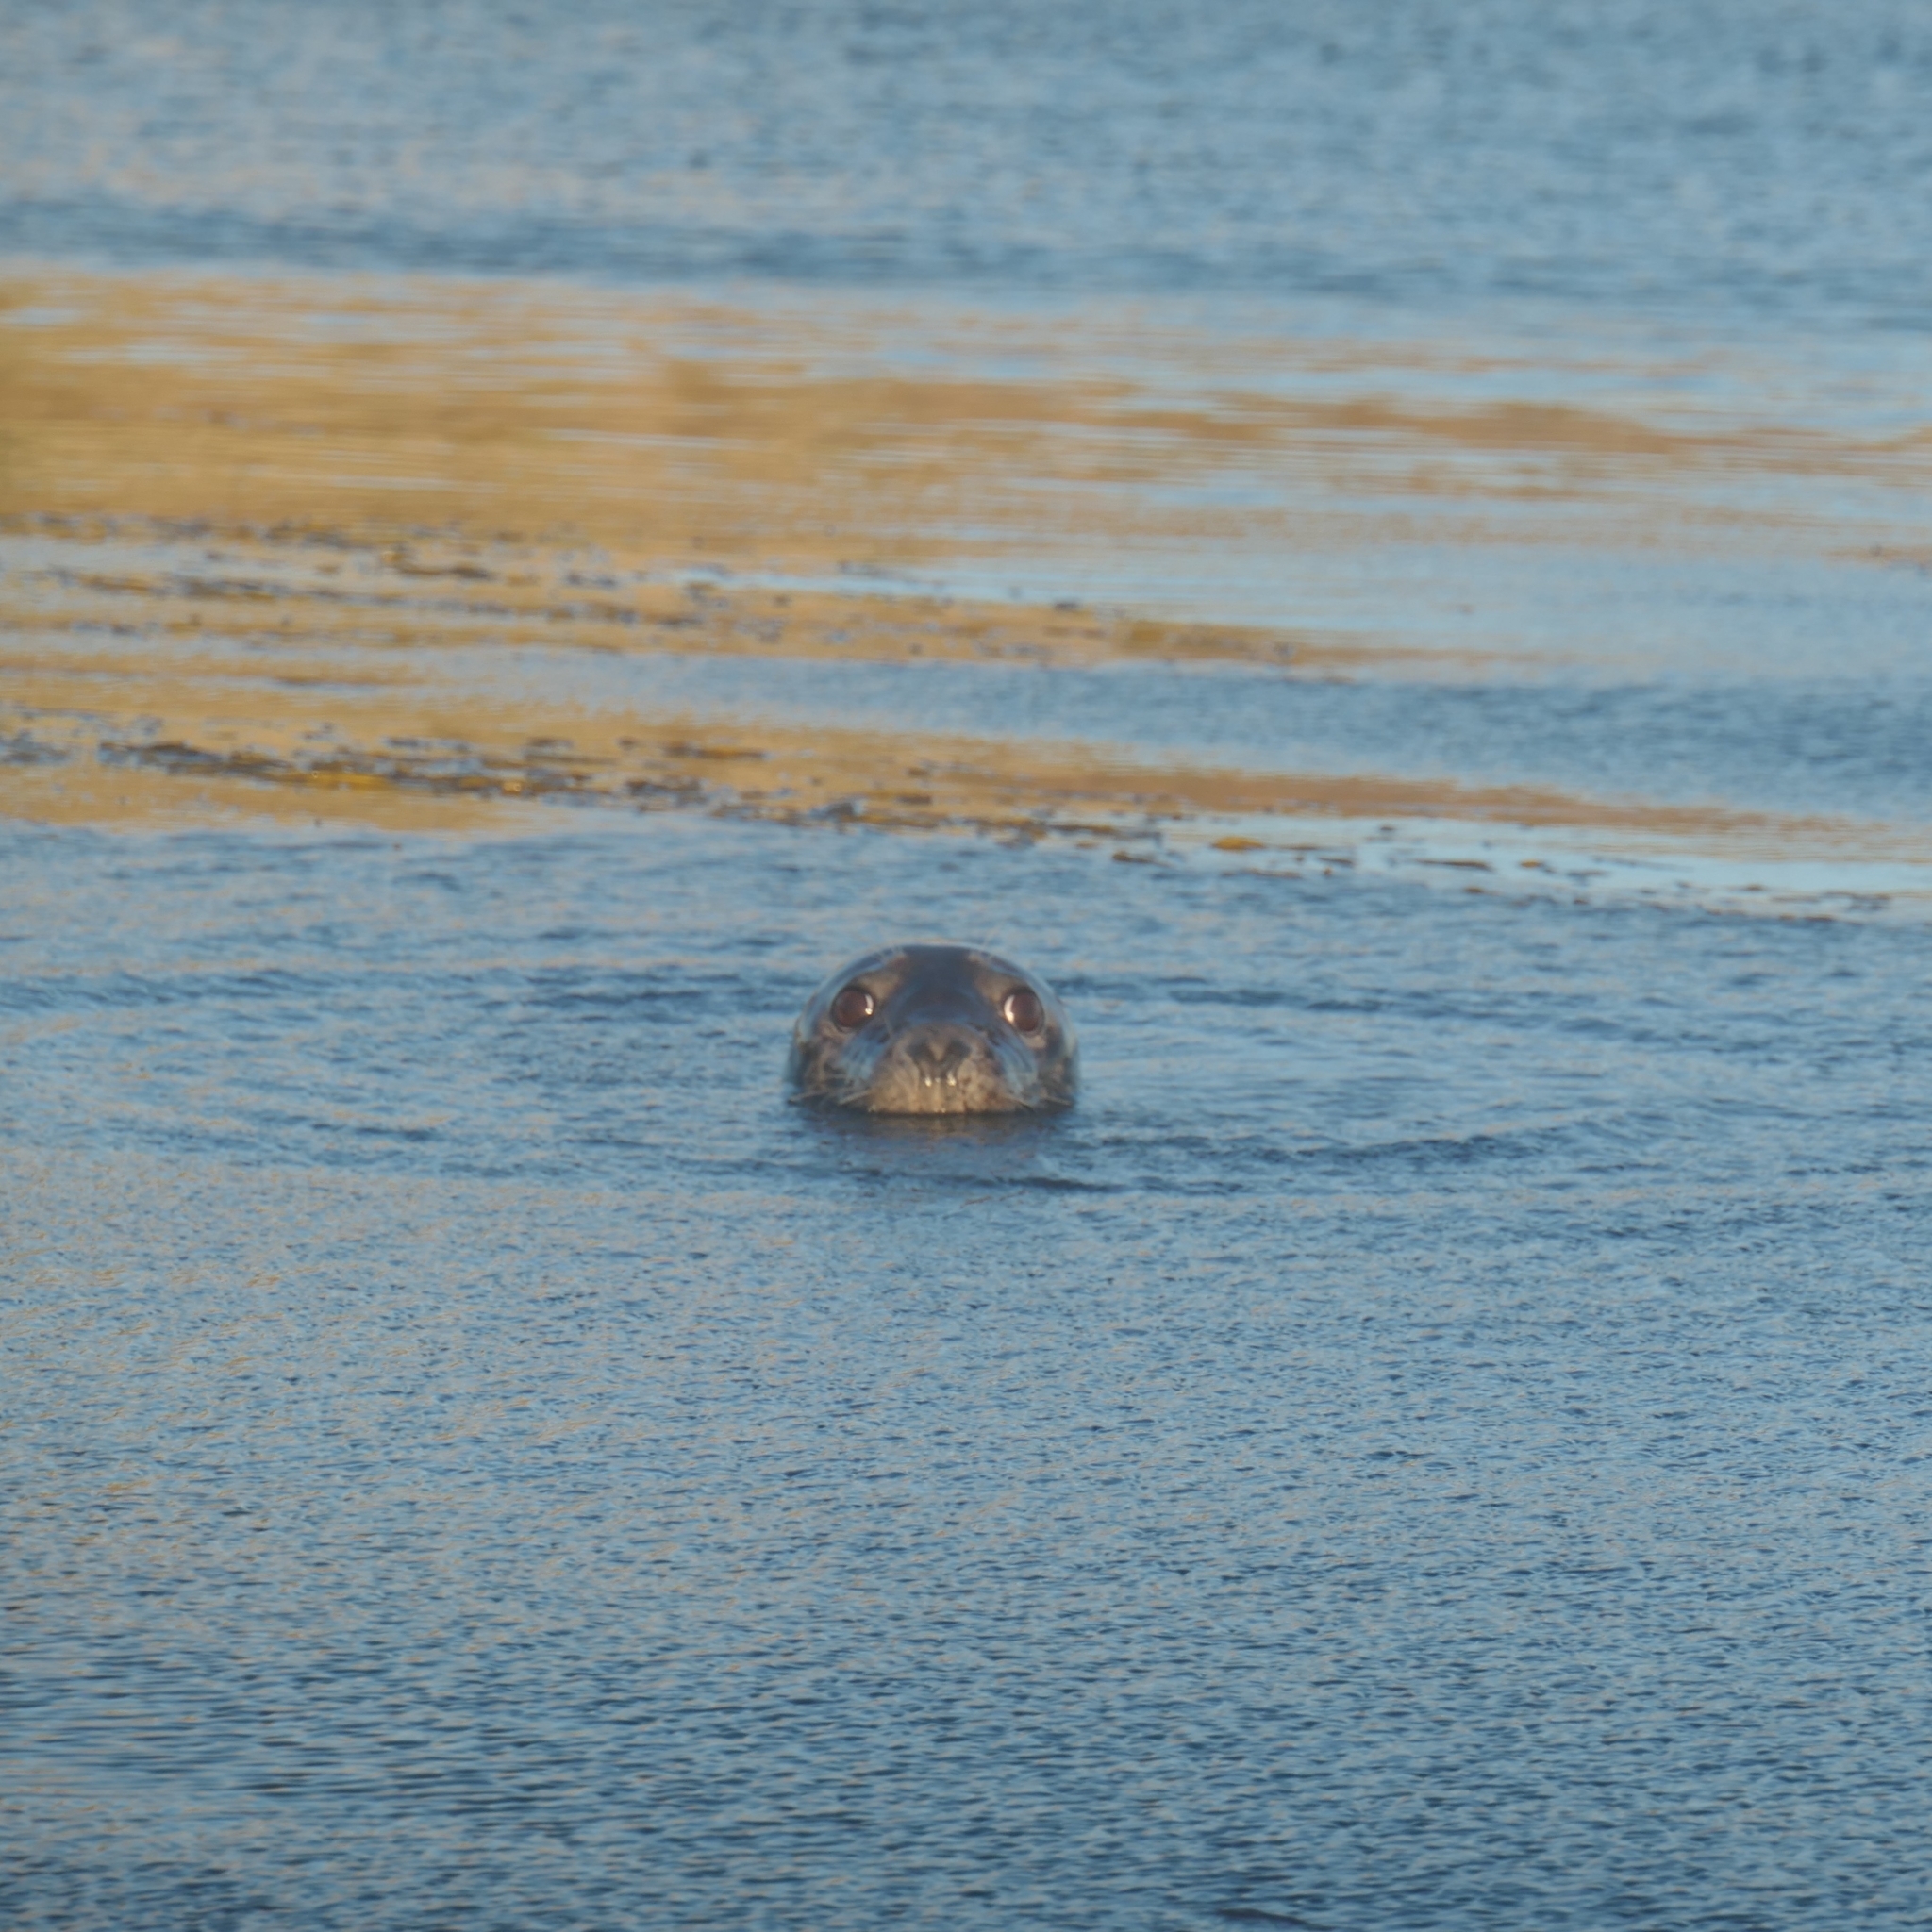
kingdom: Animalia
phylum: Chordata
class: Mammalia
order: Carnivora
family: Phocidae
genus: Halichoerus
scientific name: Halichoerus grypus
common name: Grey seal
